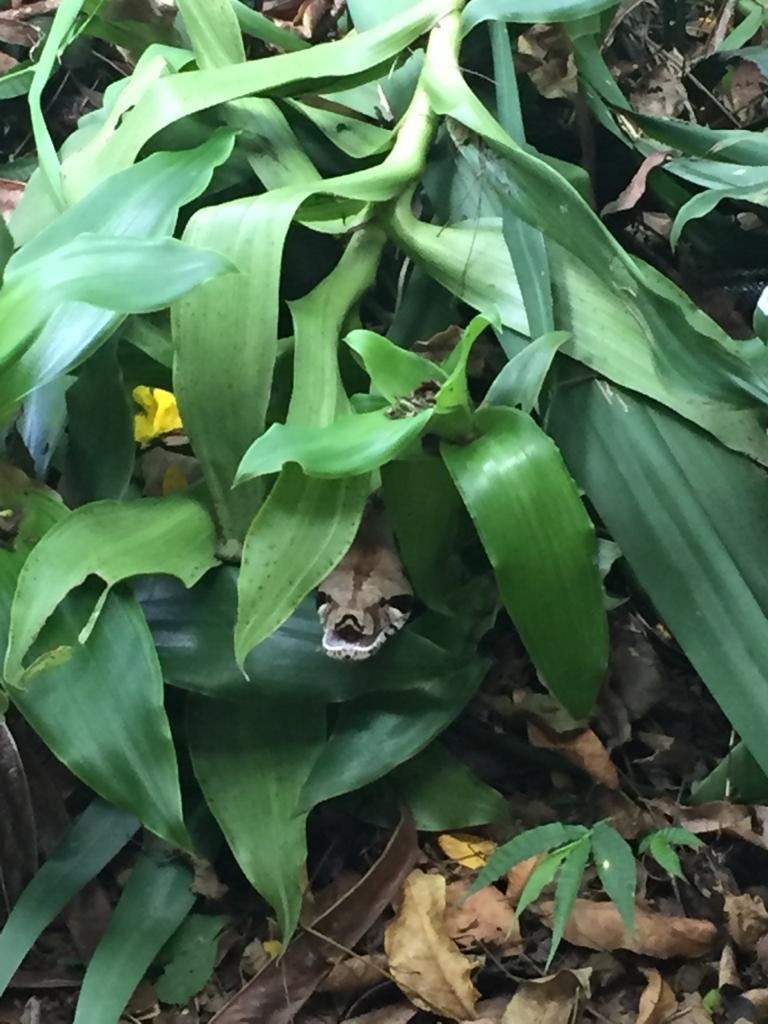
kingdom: Animalia
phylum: Chordata
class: Squamata
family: Boidae
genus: Boa
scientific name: Boa imperator
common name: Central american boa
